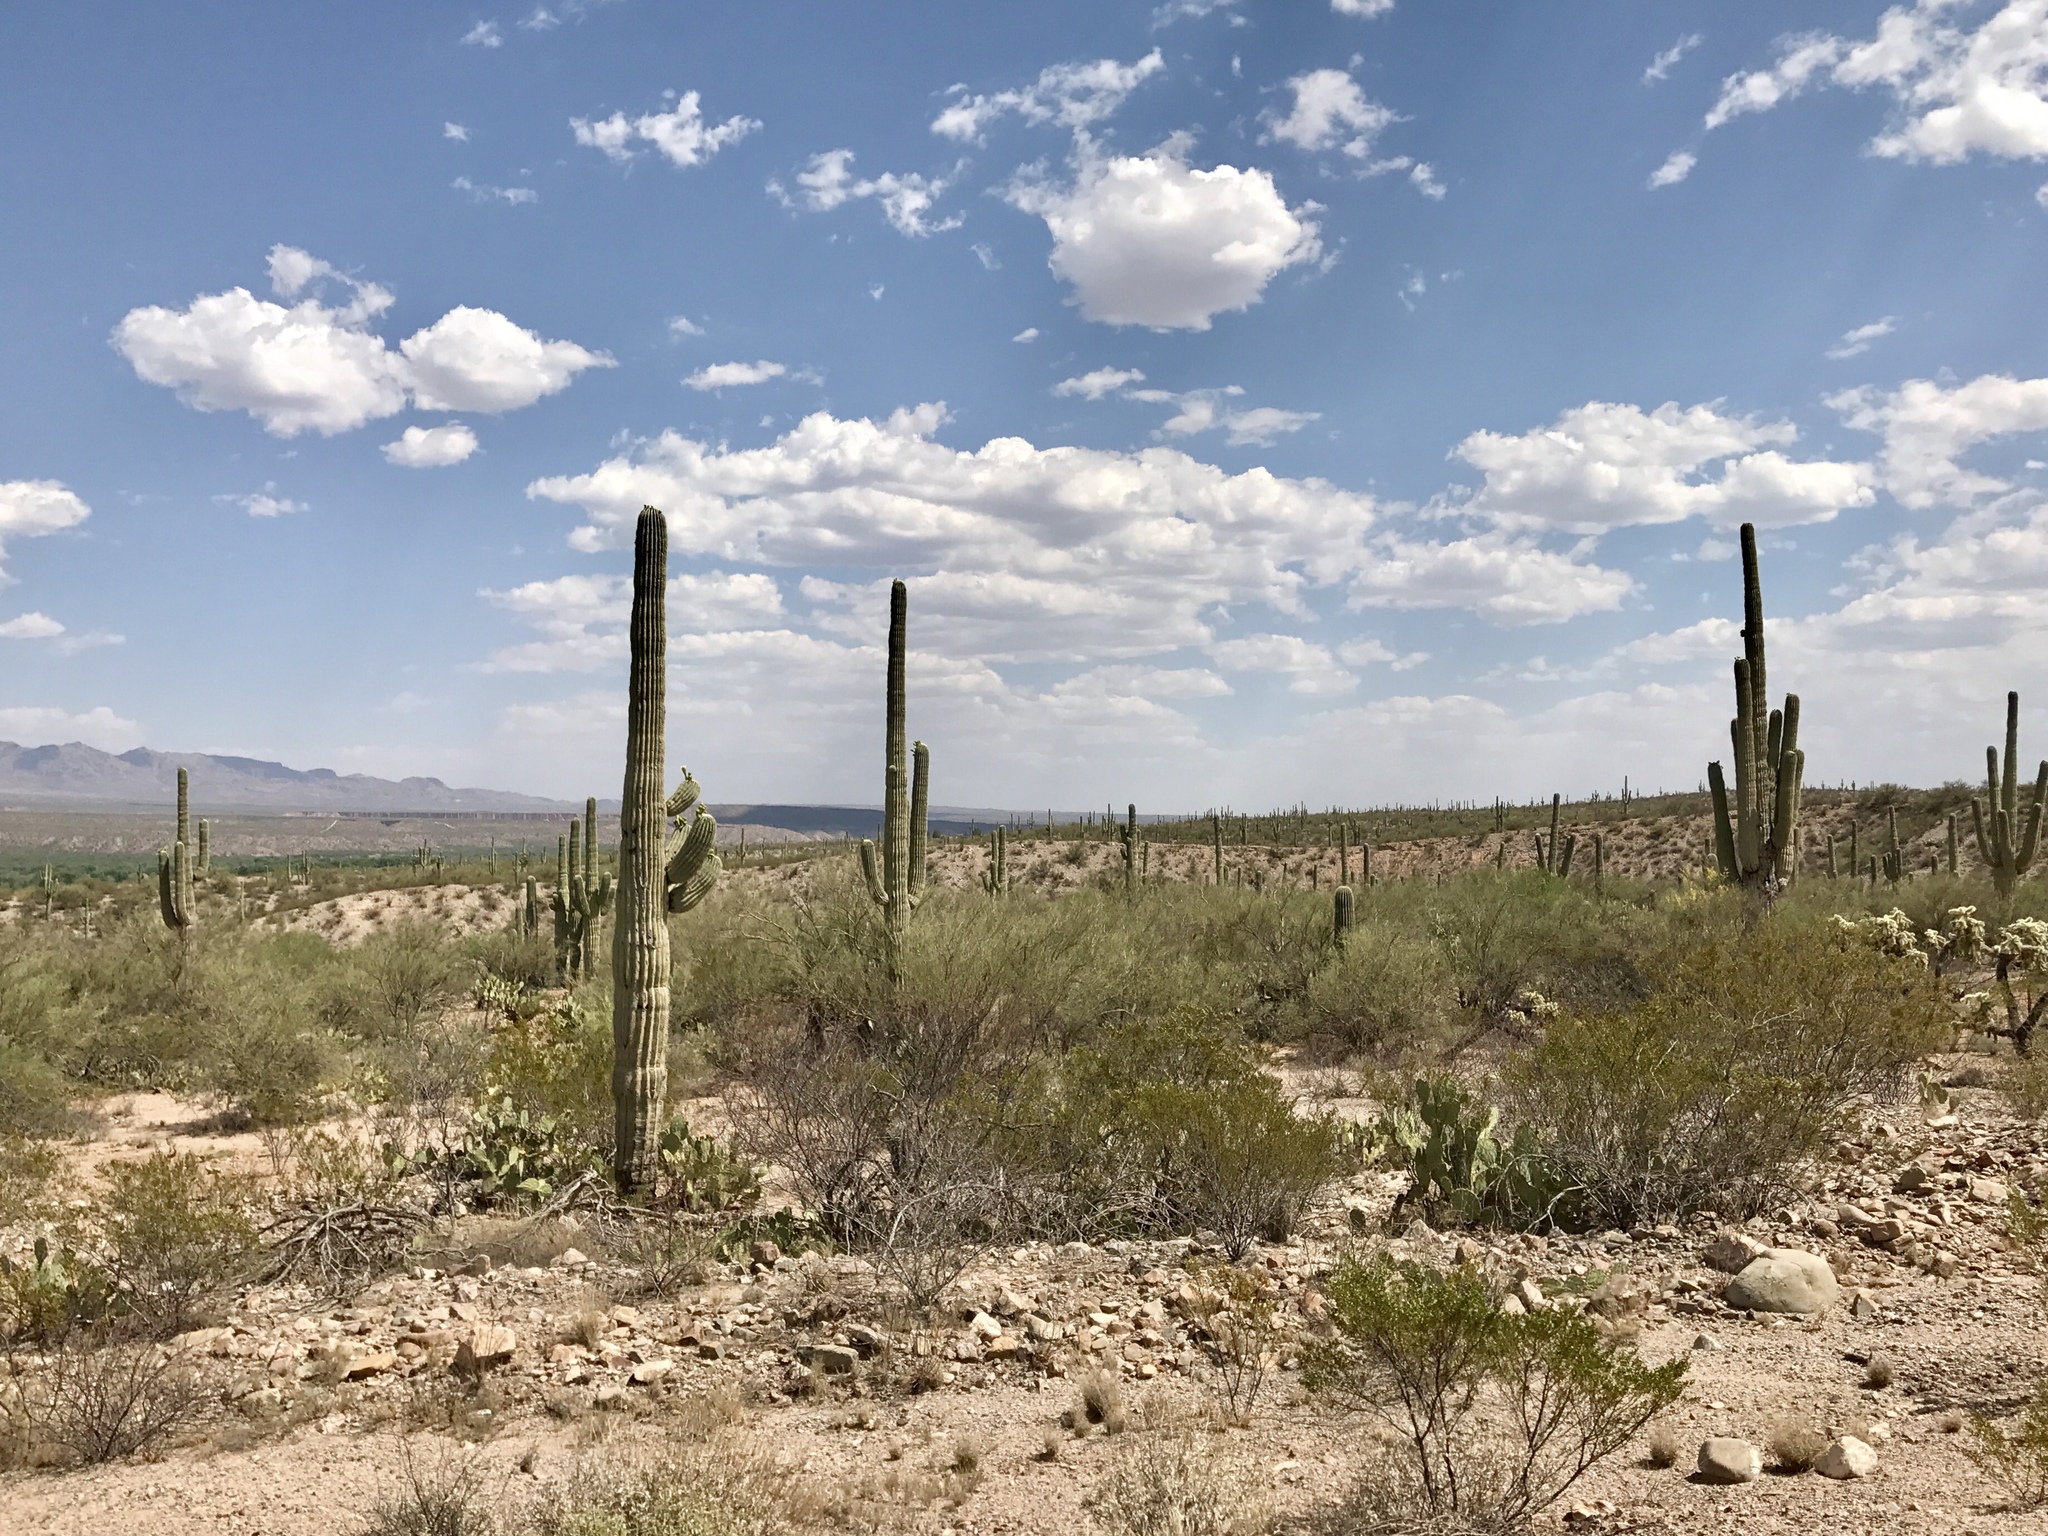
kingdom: Plantae
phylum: Tracheophyta
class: Magnoliopsida
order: Caryophyllales
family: Cactaceae
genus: Carnegiea
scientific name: Carnegiea gigantea
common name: Saguaro
